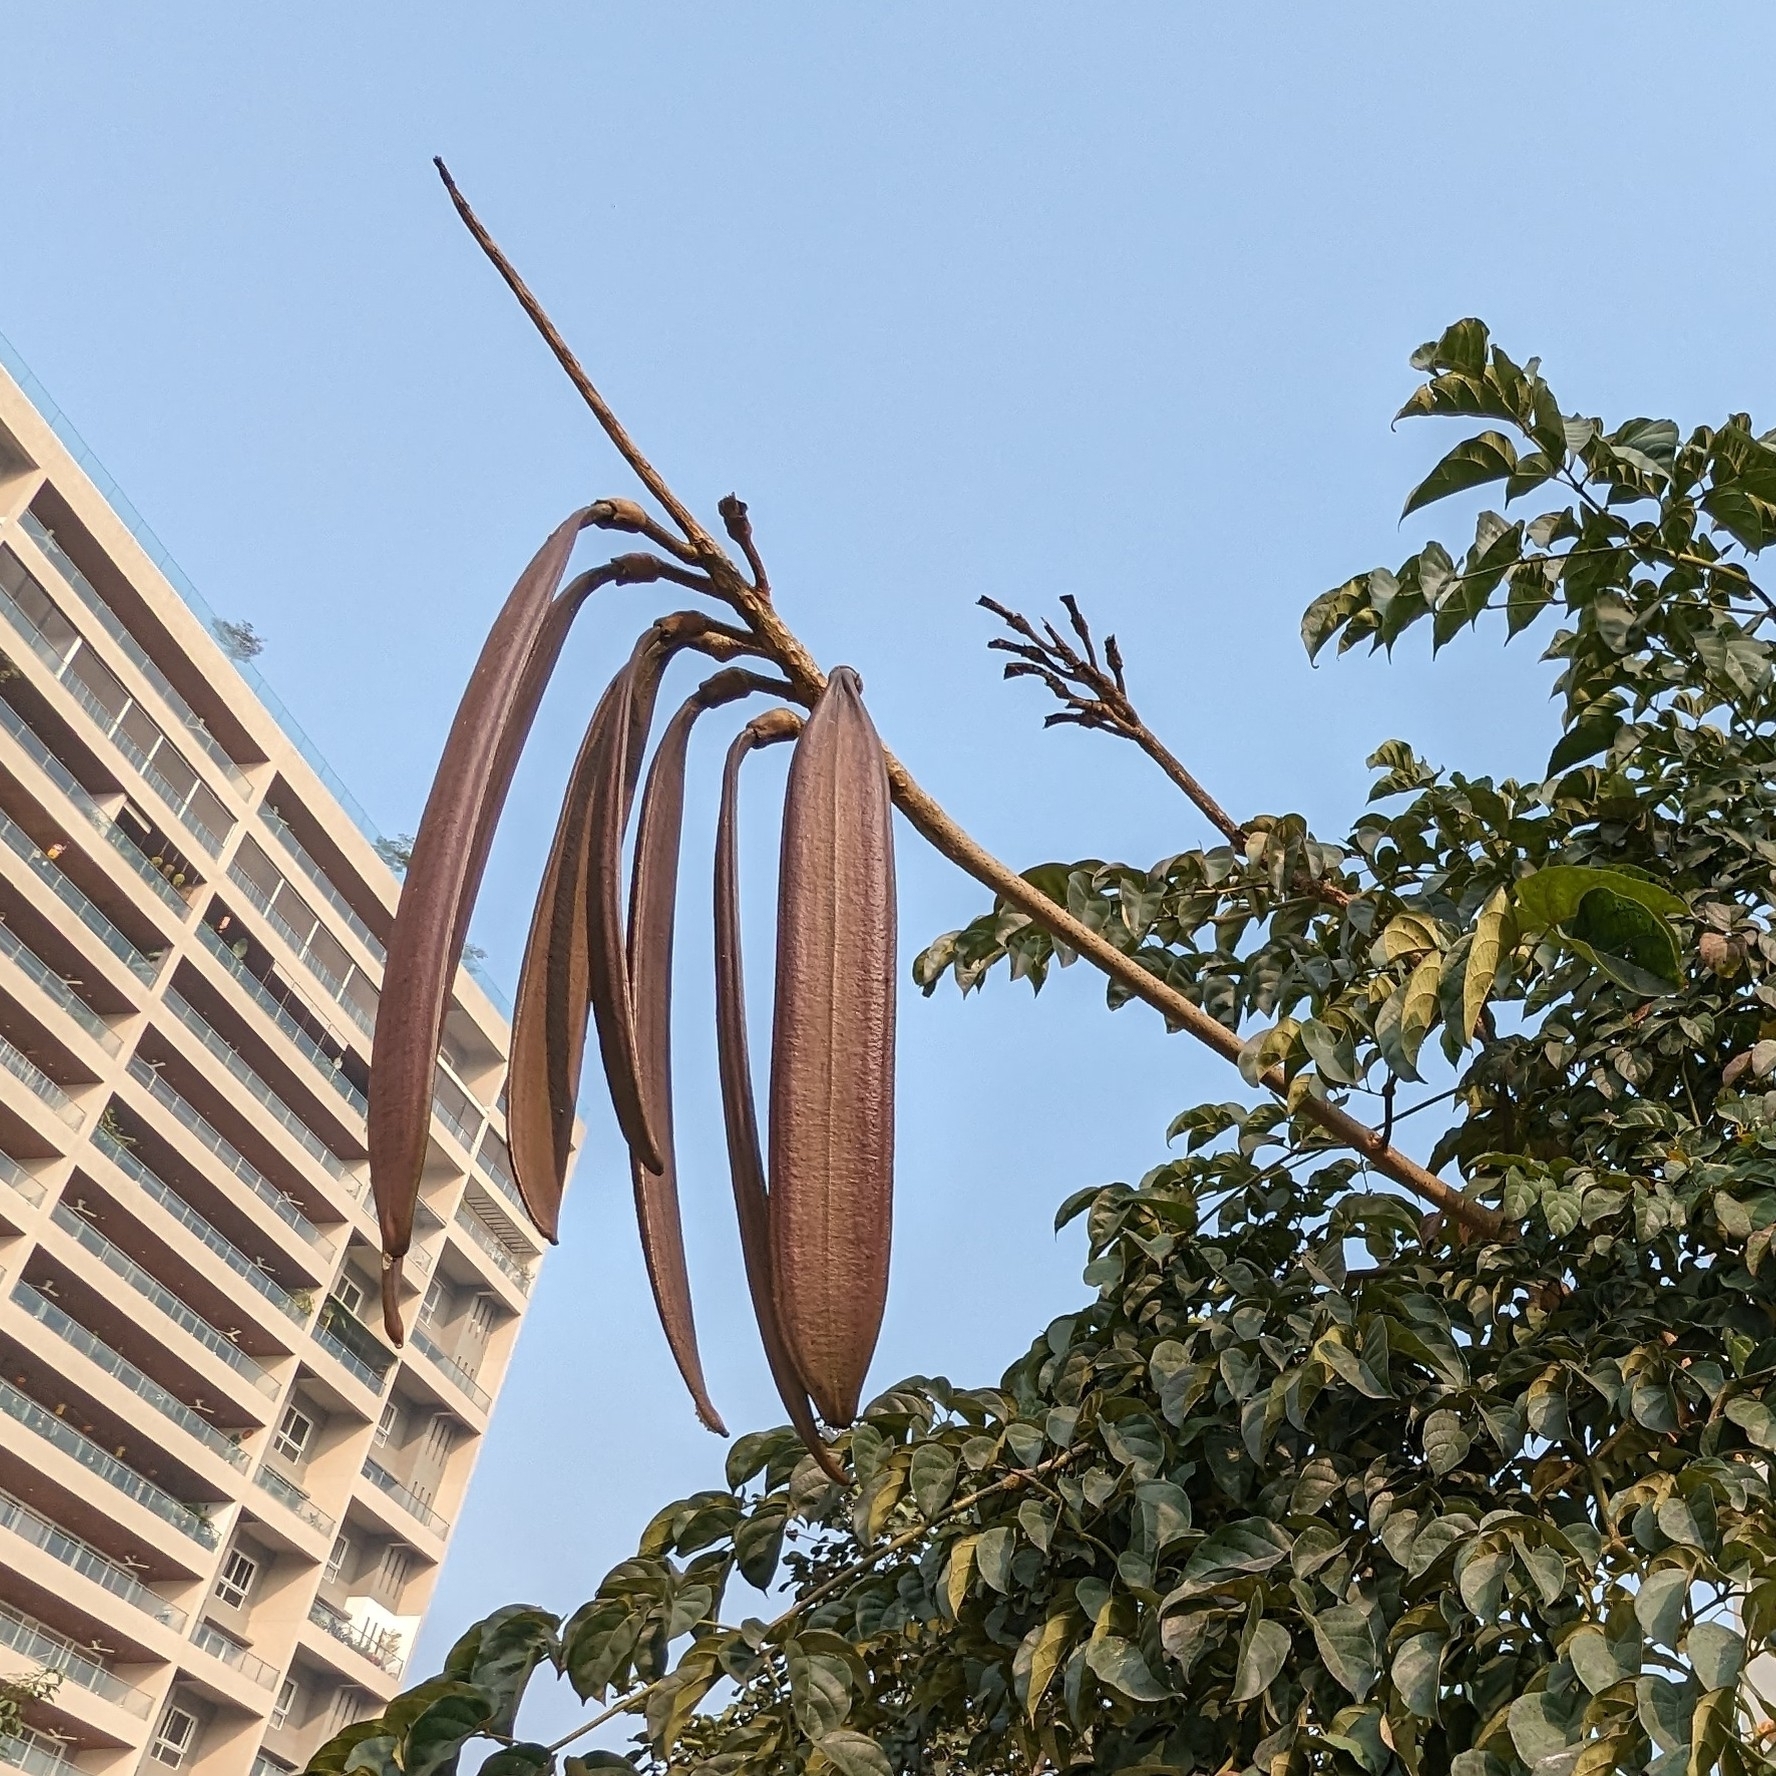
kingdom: Plantae
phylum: Tracheophyta
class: Magnoliopsida
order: Lamiales
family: Bignoniaceae
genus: Oroxylum
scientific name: Oroxylum indicum
